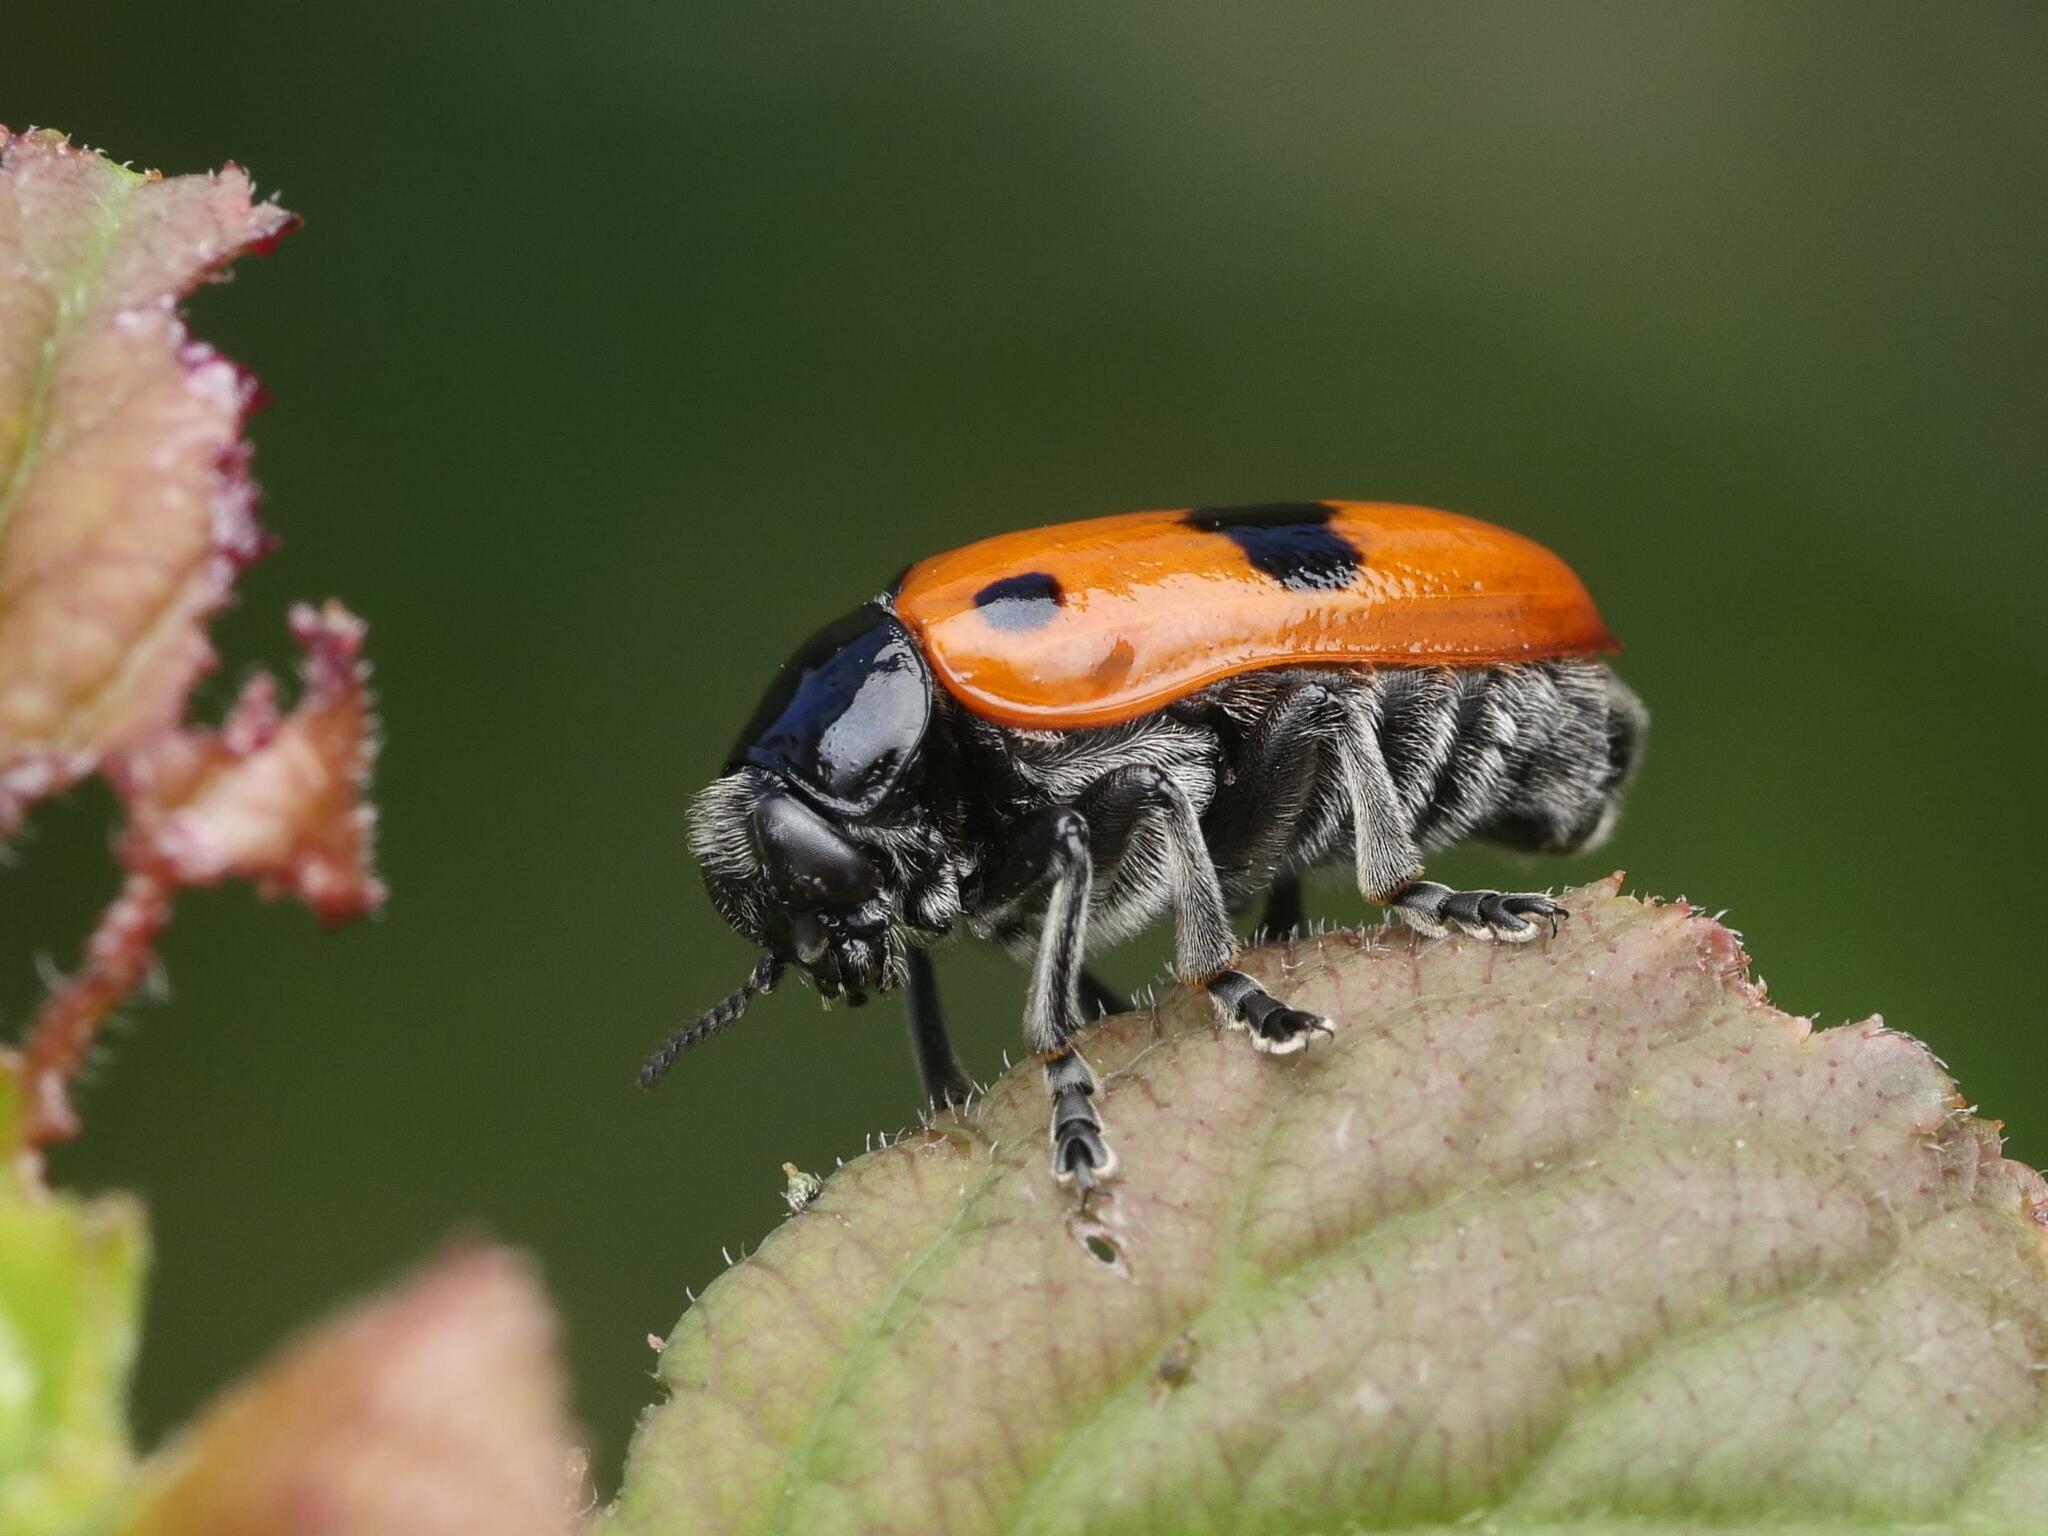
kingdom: Animalia
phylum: Arthropoda
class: Insecta
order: Coleoptera
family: Chrysomelidae
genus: Clytra
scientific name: Clytra laeviuscula
